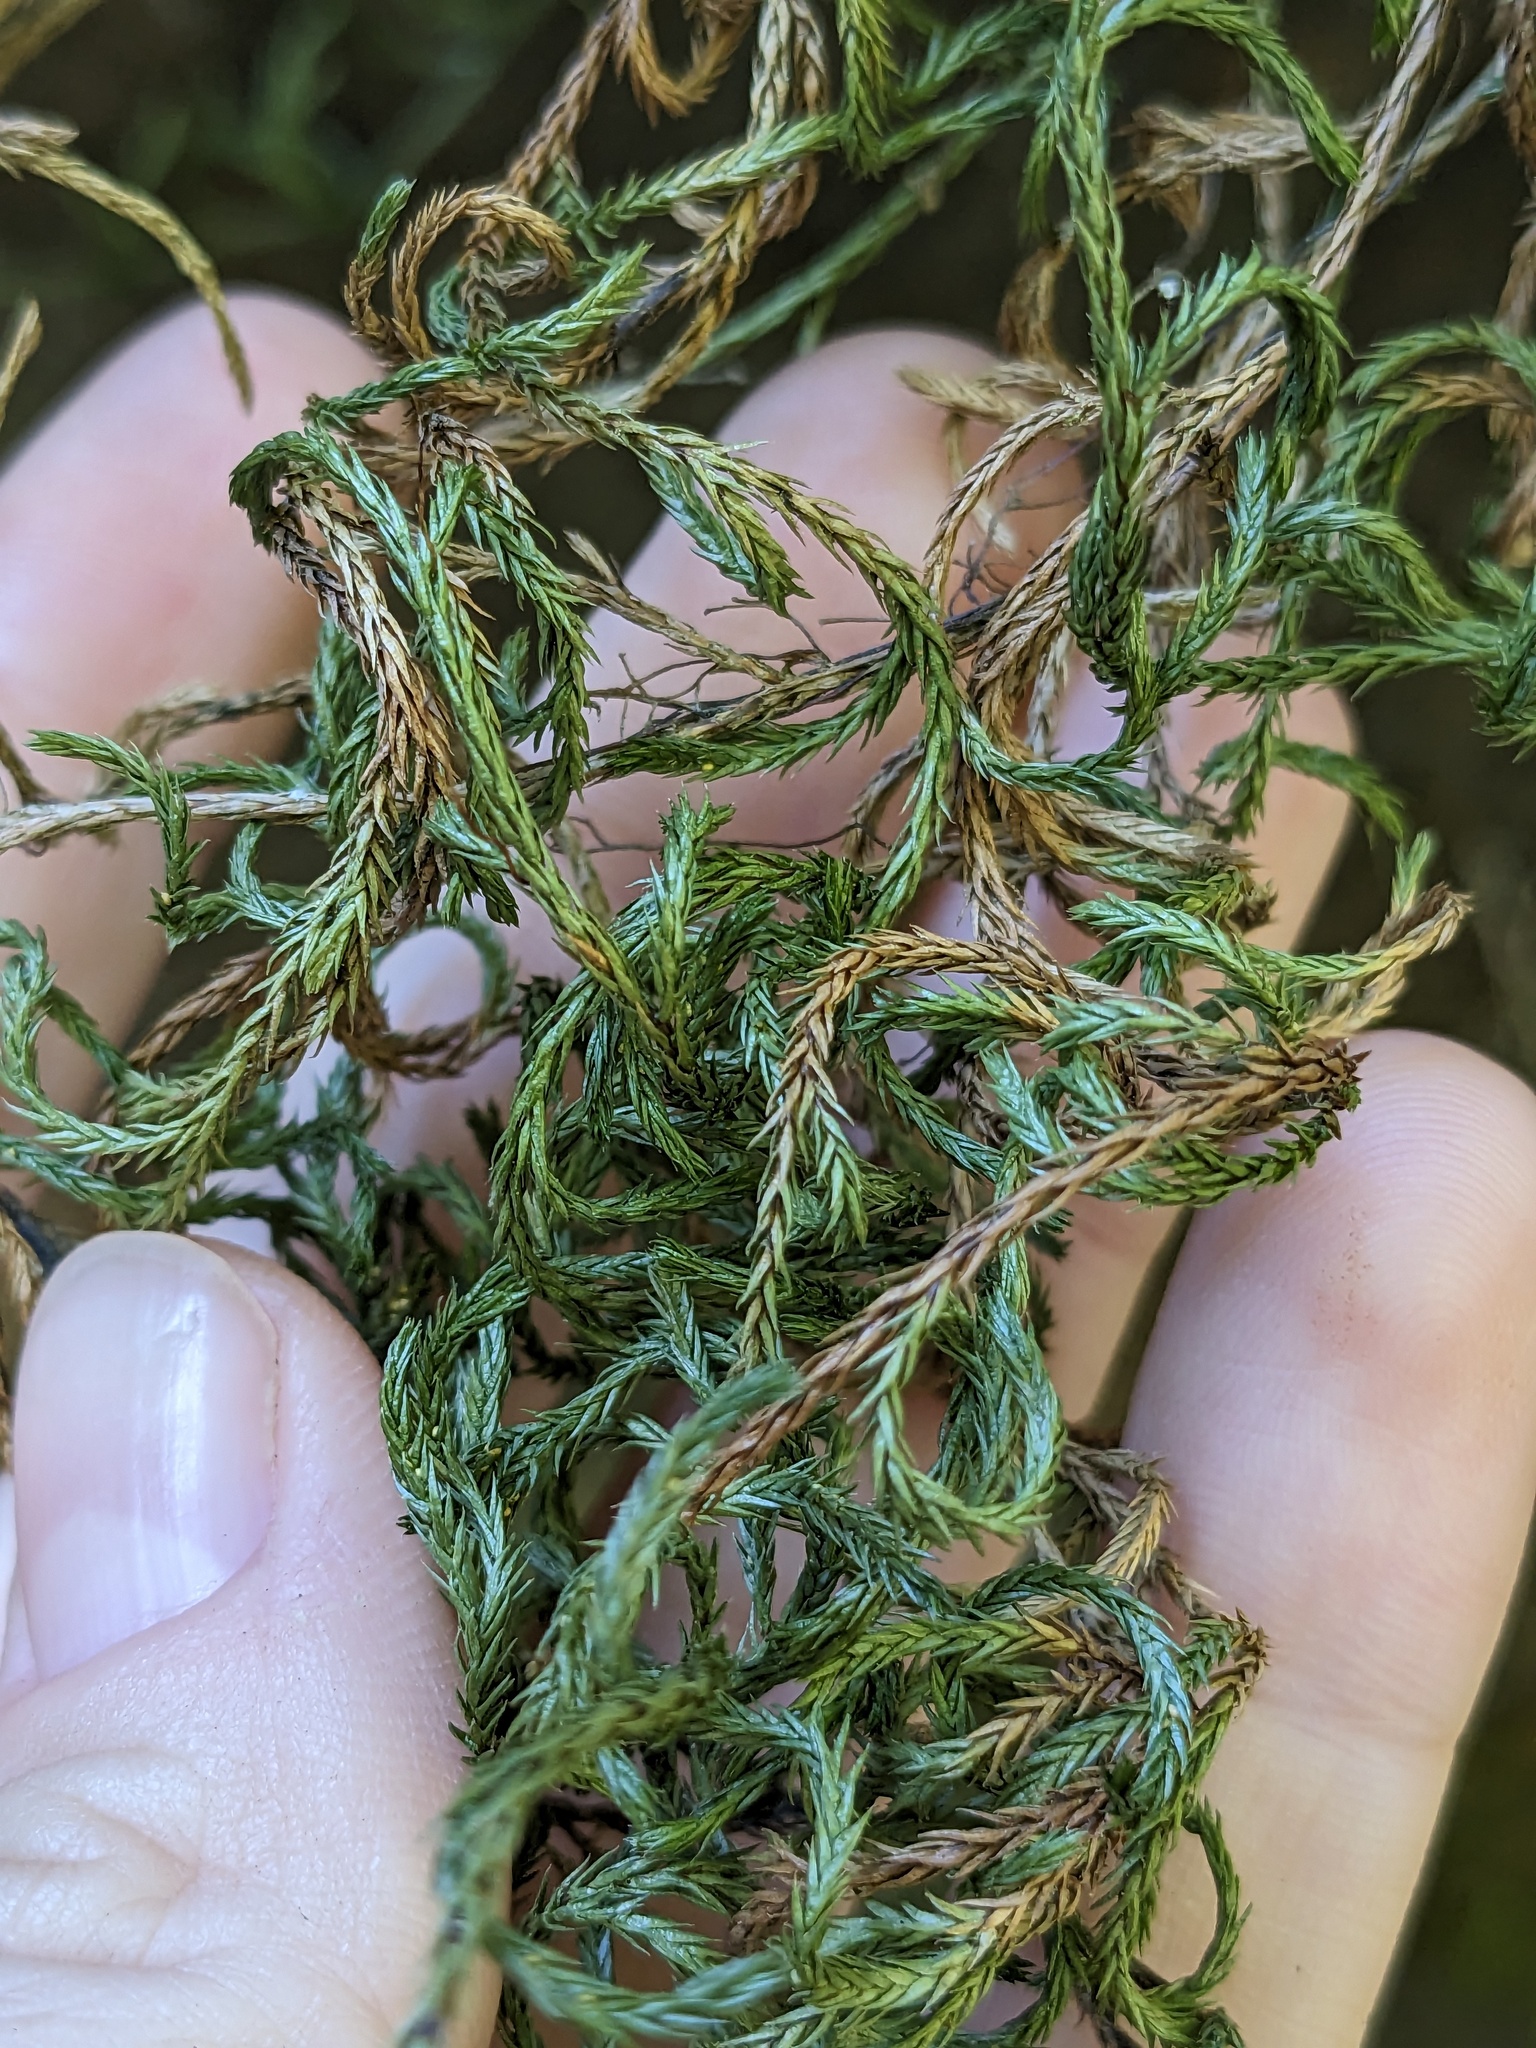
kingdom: Plantae
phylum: Tracheophyta
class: Lycopodiopsida
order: Selaginellales
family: Selaginellaceae
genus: Selaginella
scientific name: Selaginella oregana
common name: Oregon selaginella
